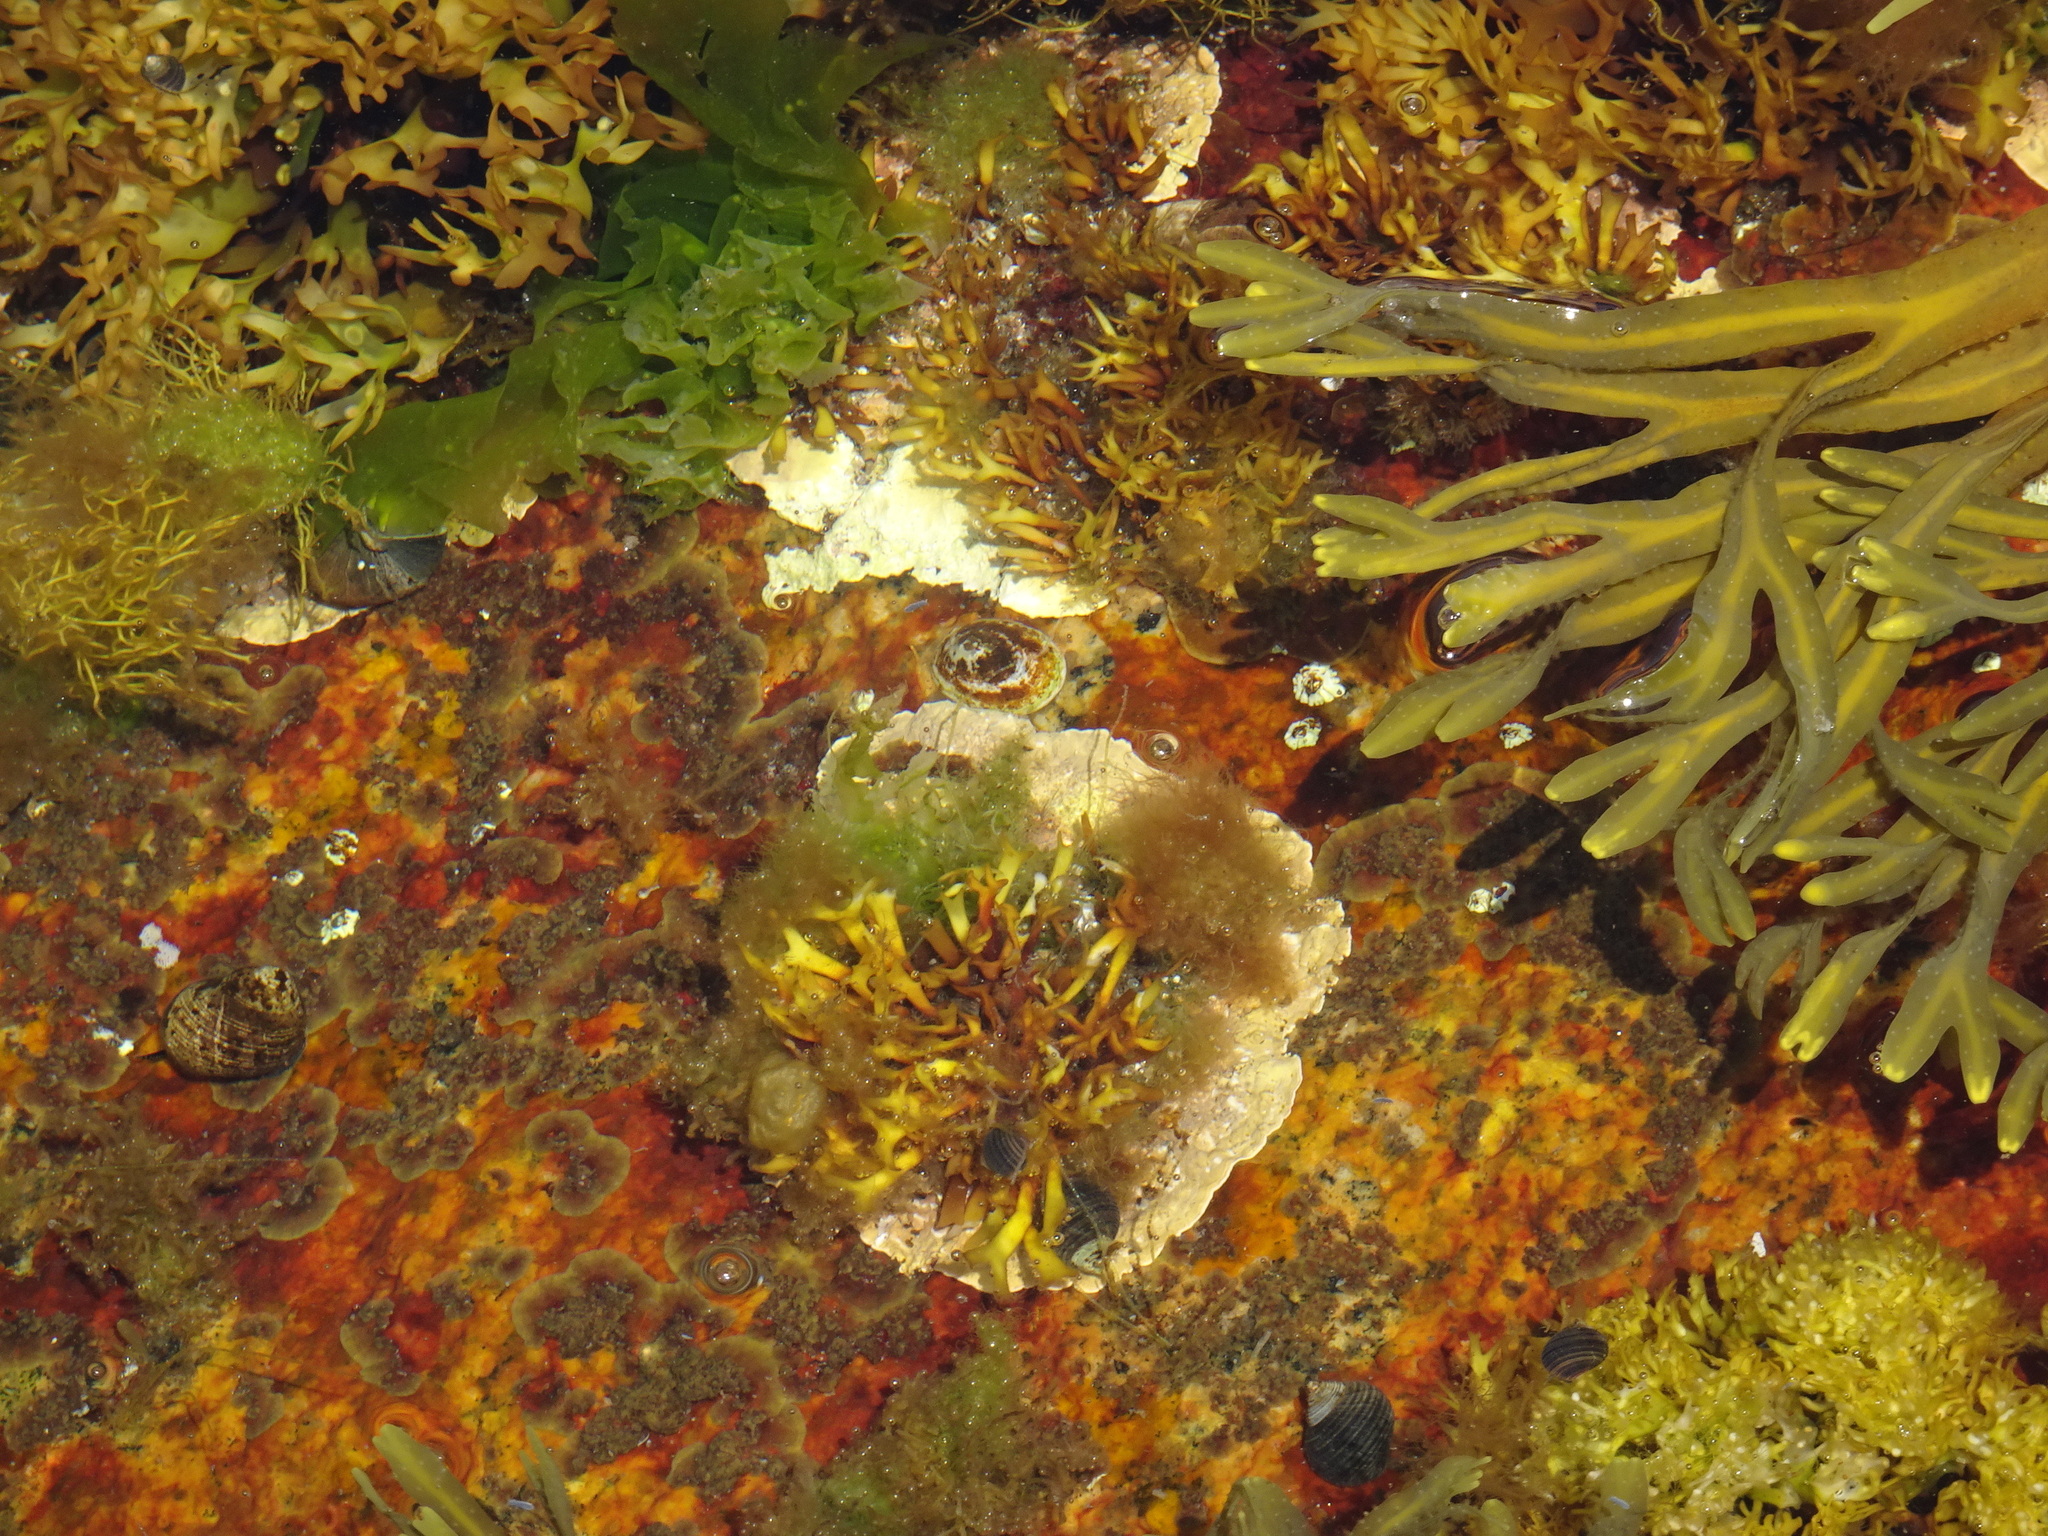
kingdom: Animalia
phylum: Mollusca
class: Gastropoda
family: Lottiidae
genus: Testudinalia
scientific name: Testudinalia testudinalis
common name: Common tortoiseshell limpet
